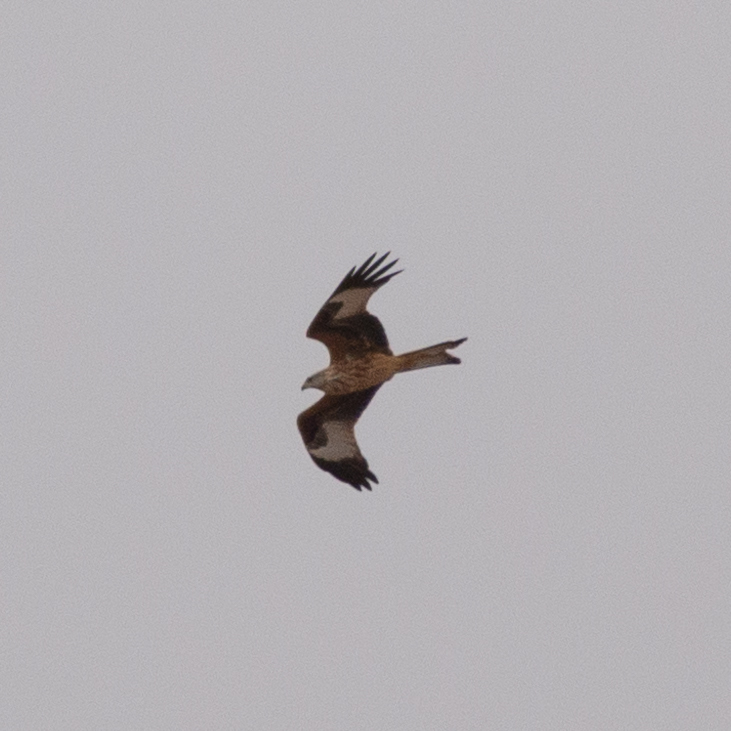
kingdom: Animalia
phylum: Chordata
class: Aves
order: Accipitriformes
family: Accipitridae
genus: Milvus
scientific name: Milvus milvus
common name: Red kite
